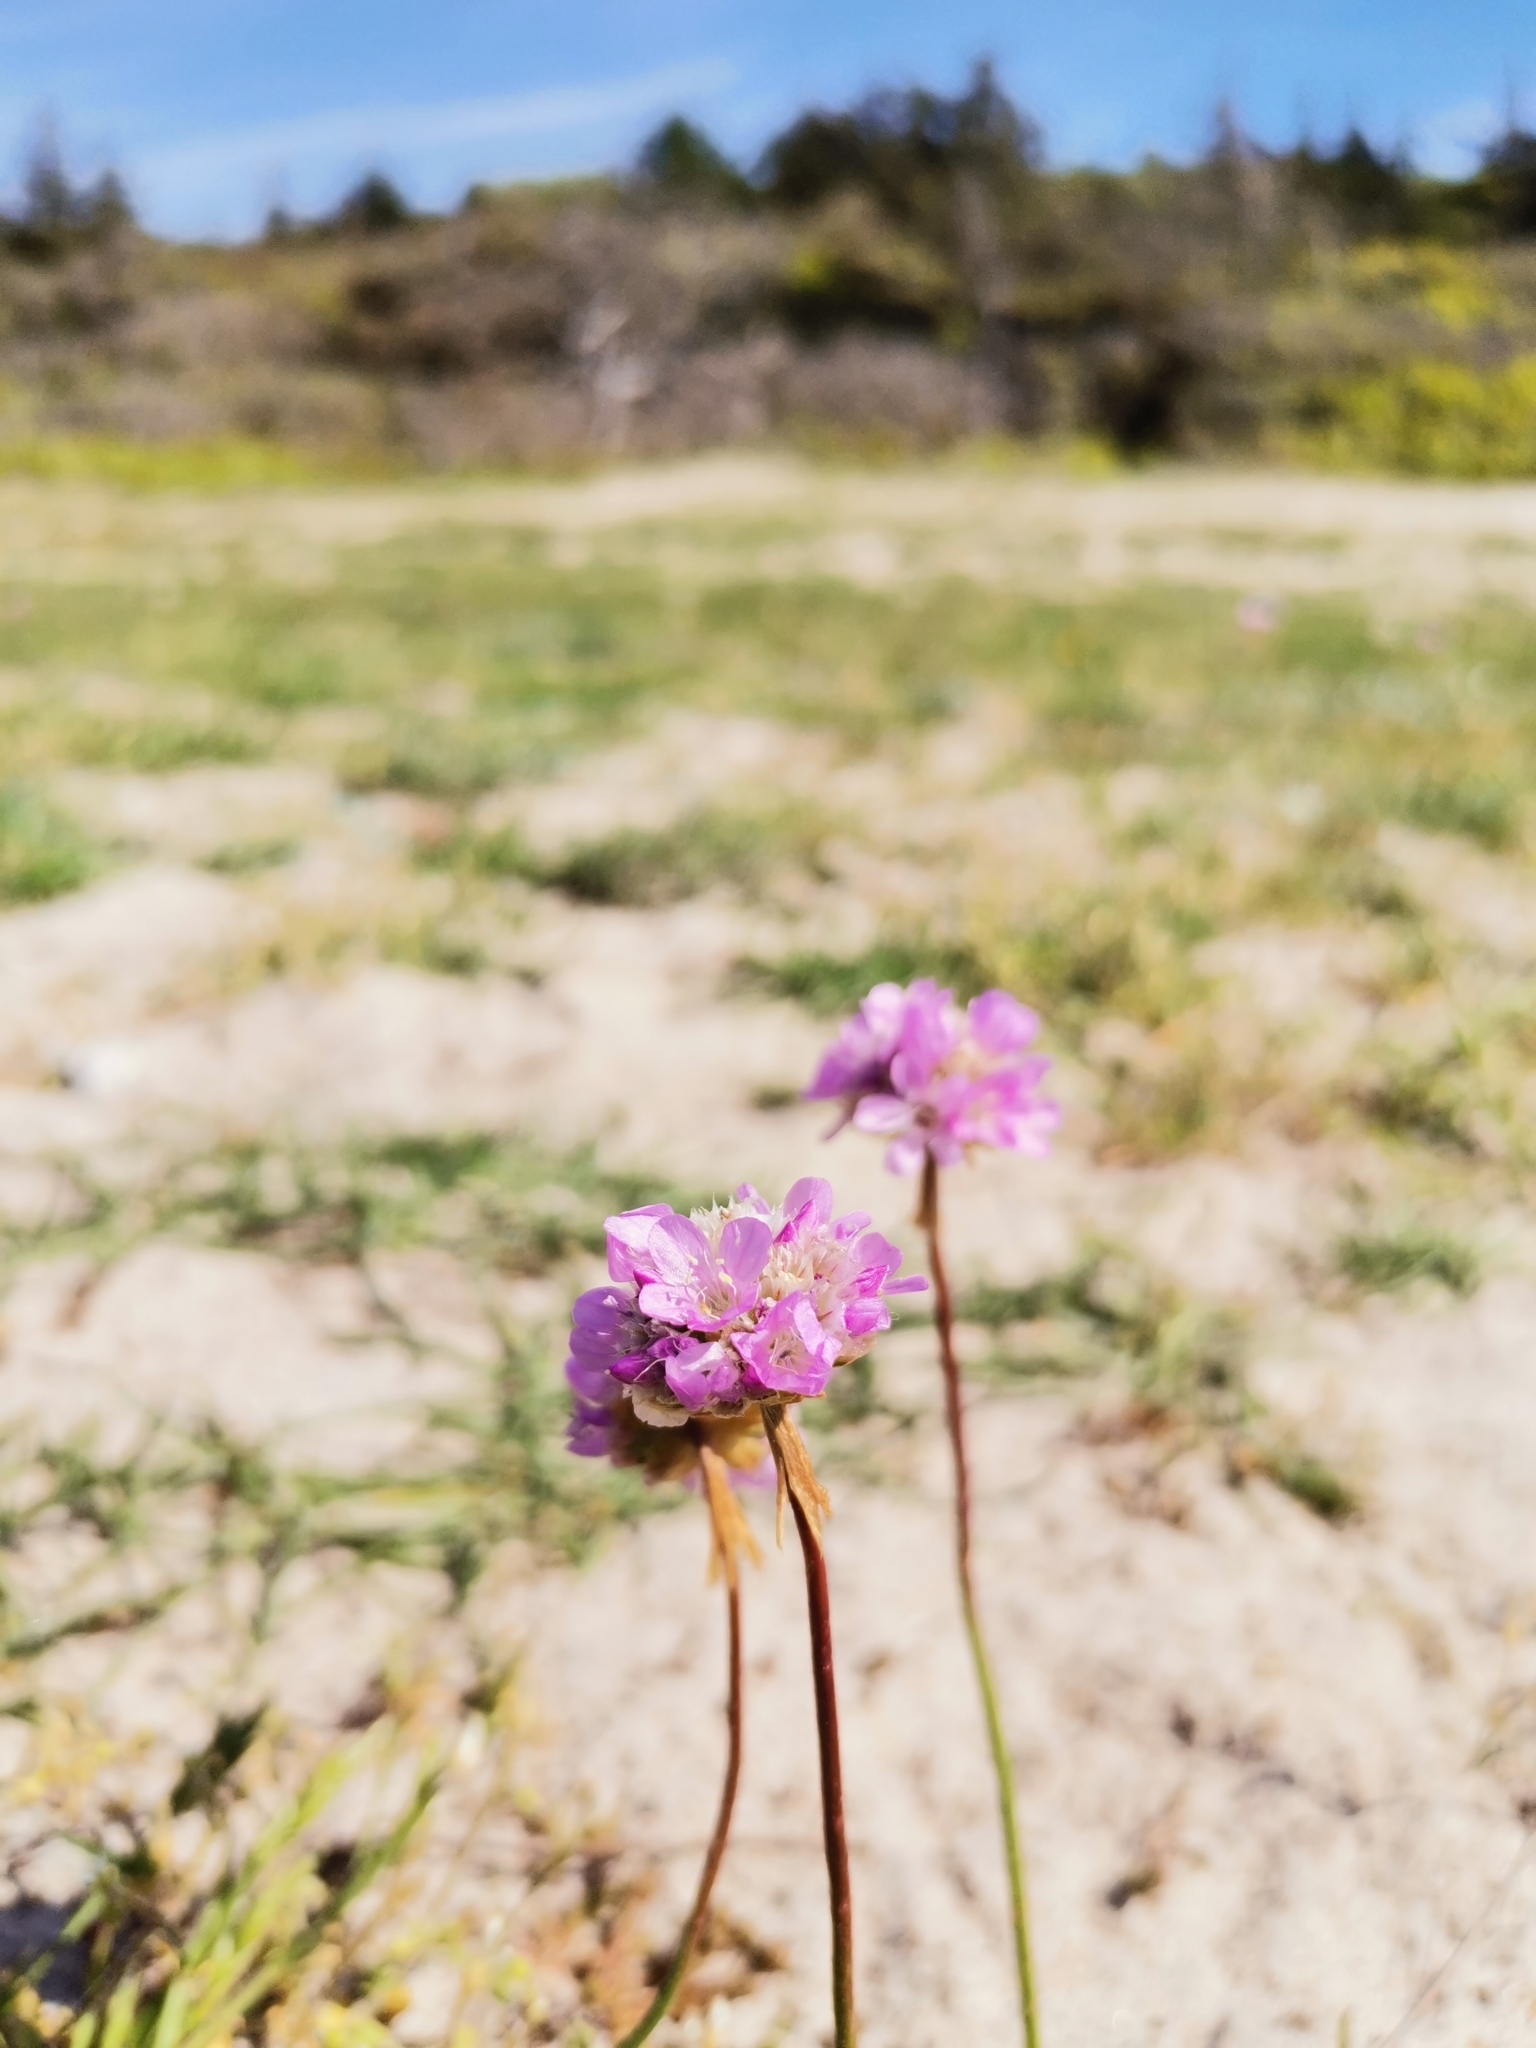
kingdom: Plantae
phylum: Tracheophyta
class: Magnoliopsida
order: Caryophyllales
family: Plumbaginaceae
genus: Armeria
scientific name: Armeria maritima
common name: Thrift
